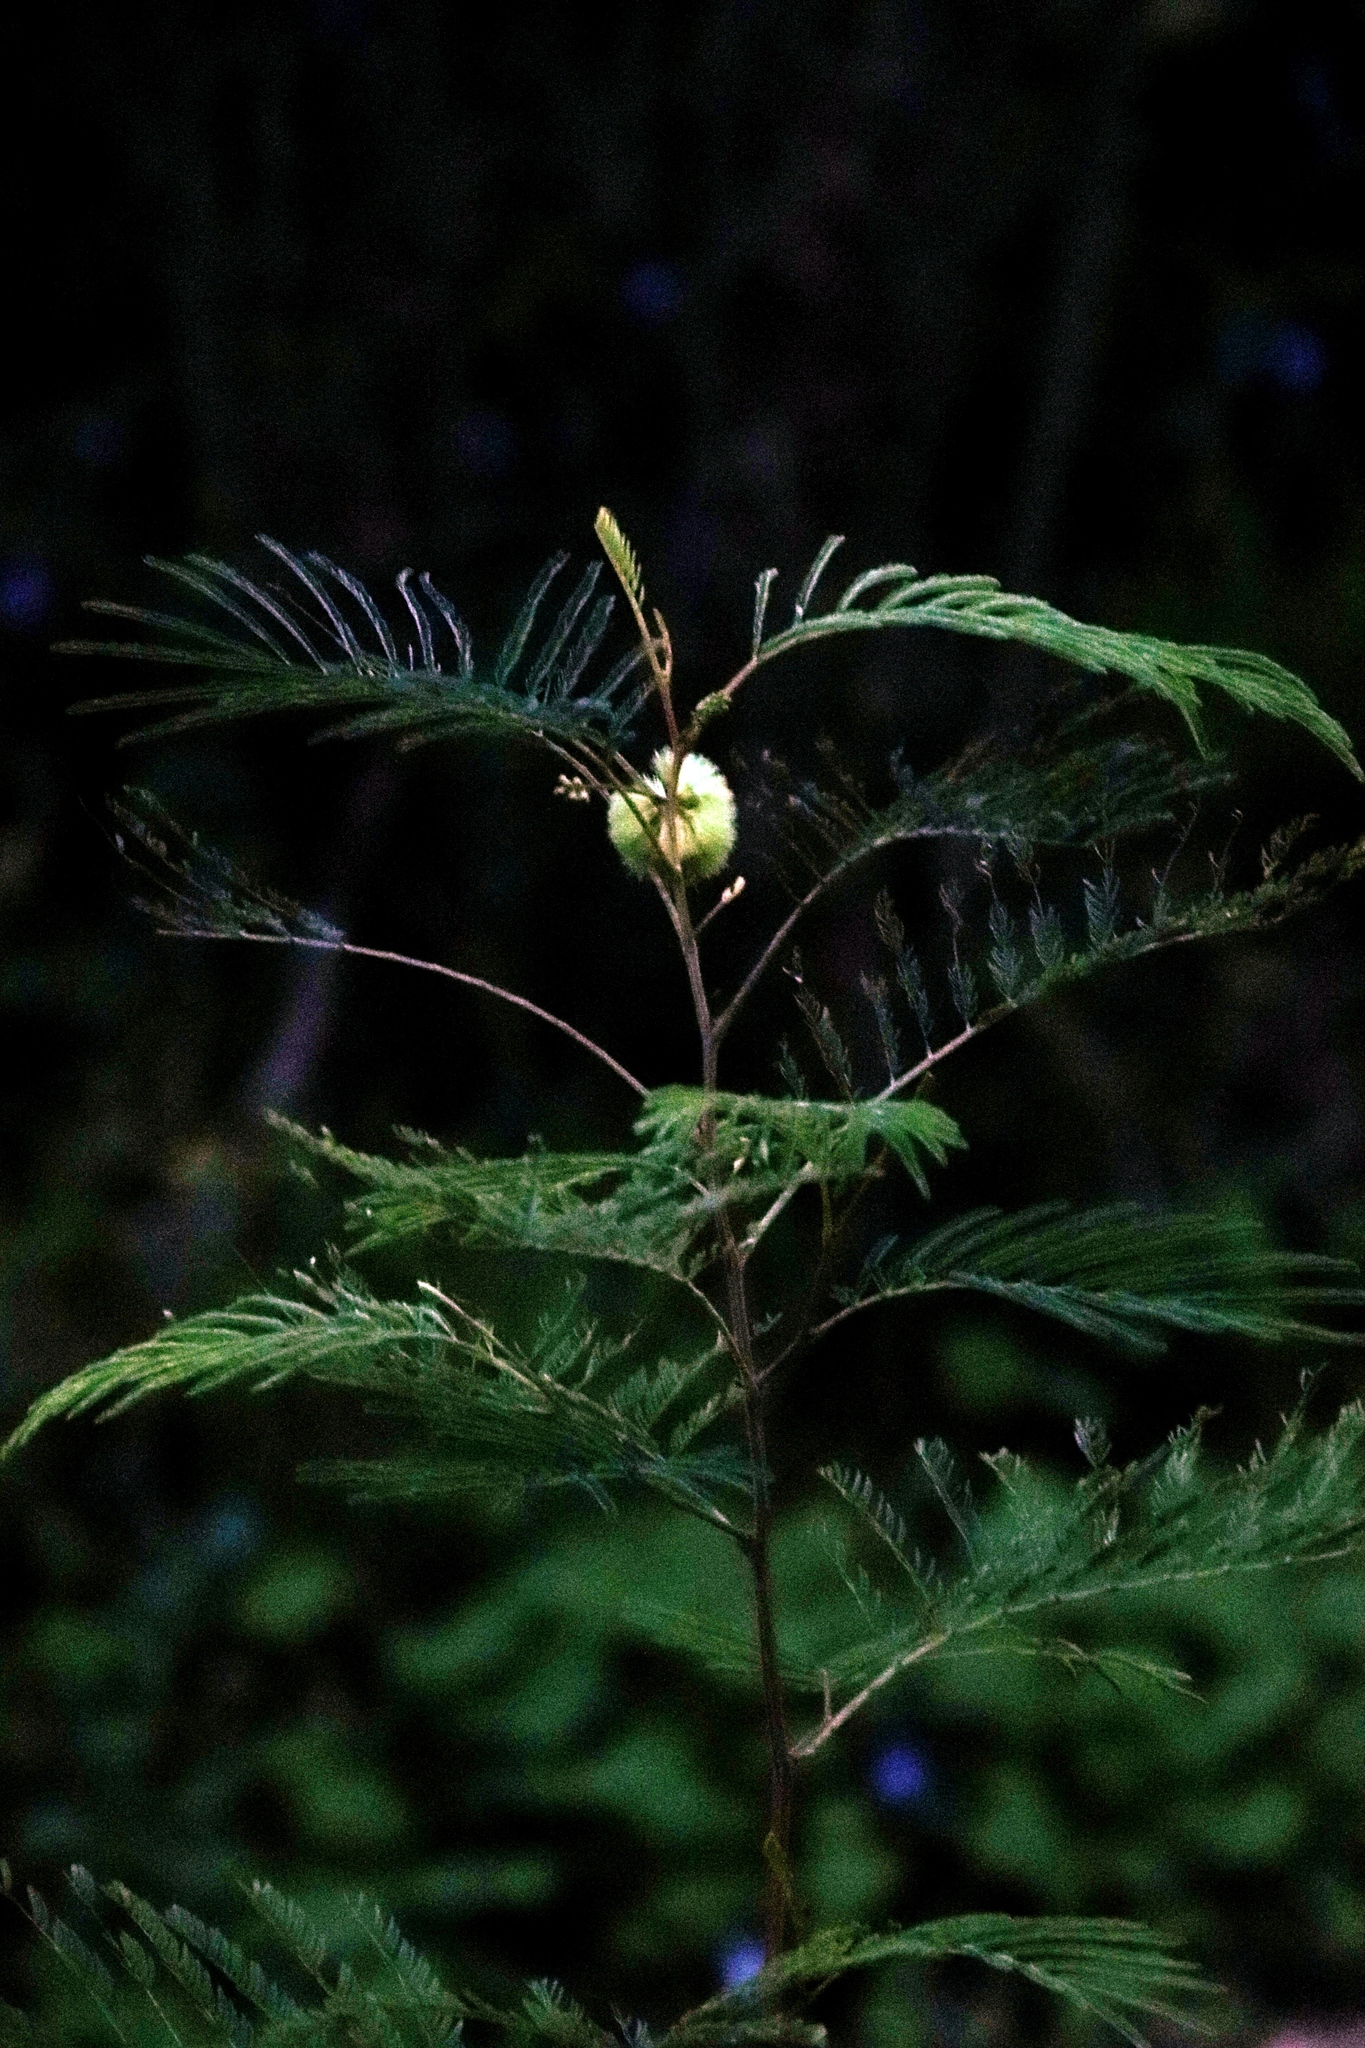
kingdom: Plantae
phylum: Tracheophyta
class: Magnoliopsida
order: Fabales
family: Fabaceae
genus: Paraserianthes
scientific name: Paraserianthes lophantha
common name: Plume albizia
